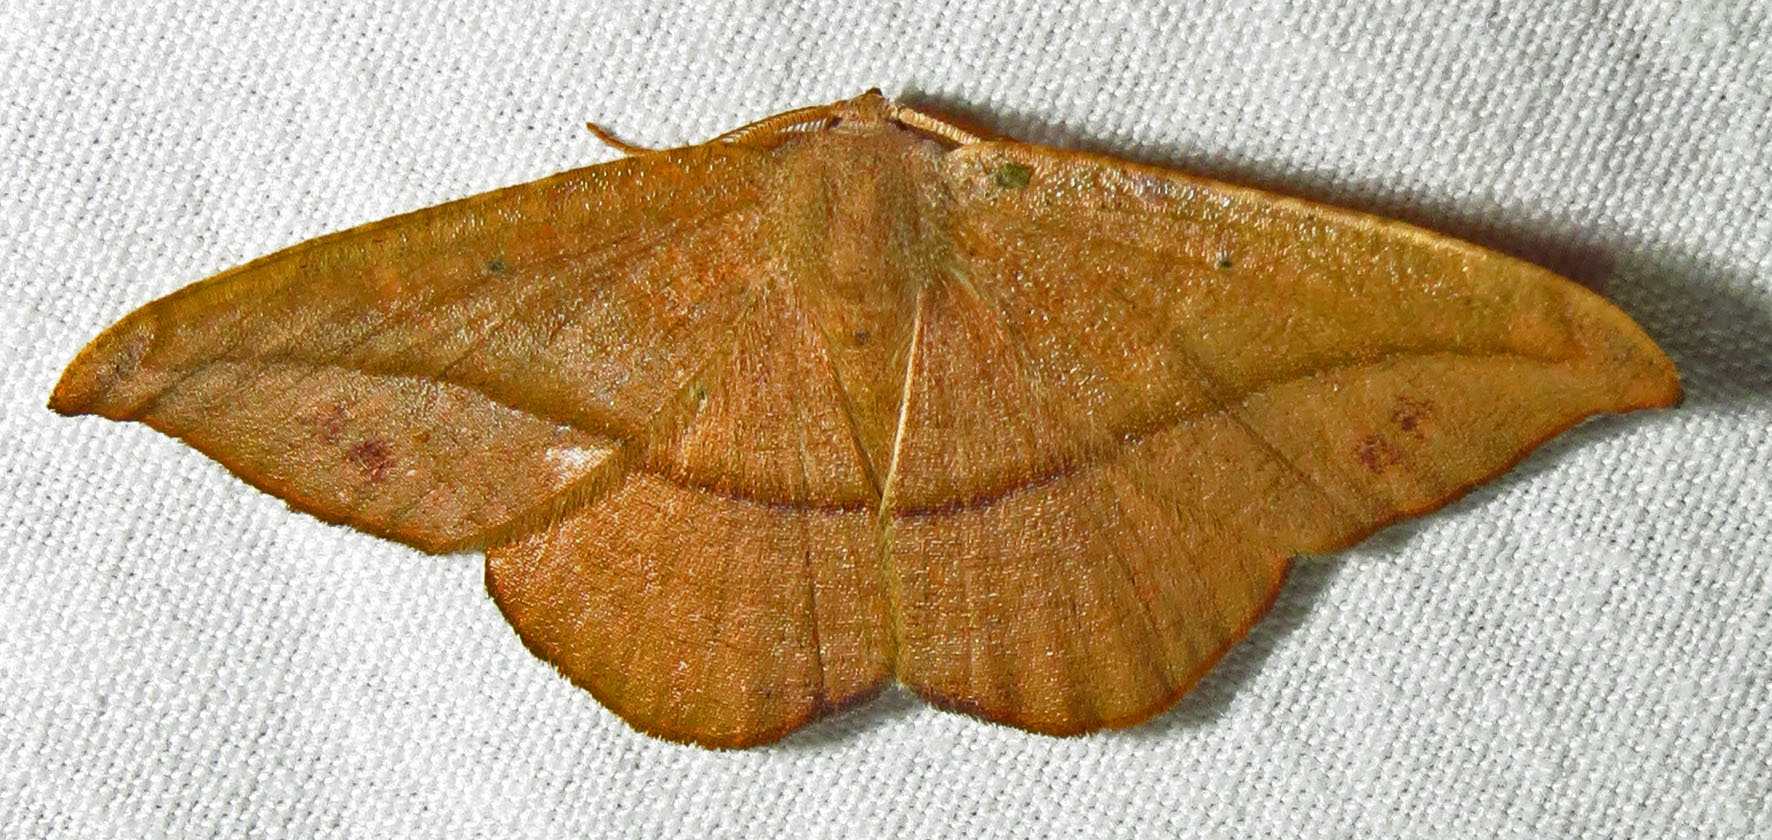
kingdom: Animalia
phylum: Arthropoda
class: Insecta
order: Lepidoptera
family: Geometridae
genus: Patalene
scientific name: Patalene olyzonaria
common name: Juniper geometer moth
